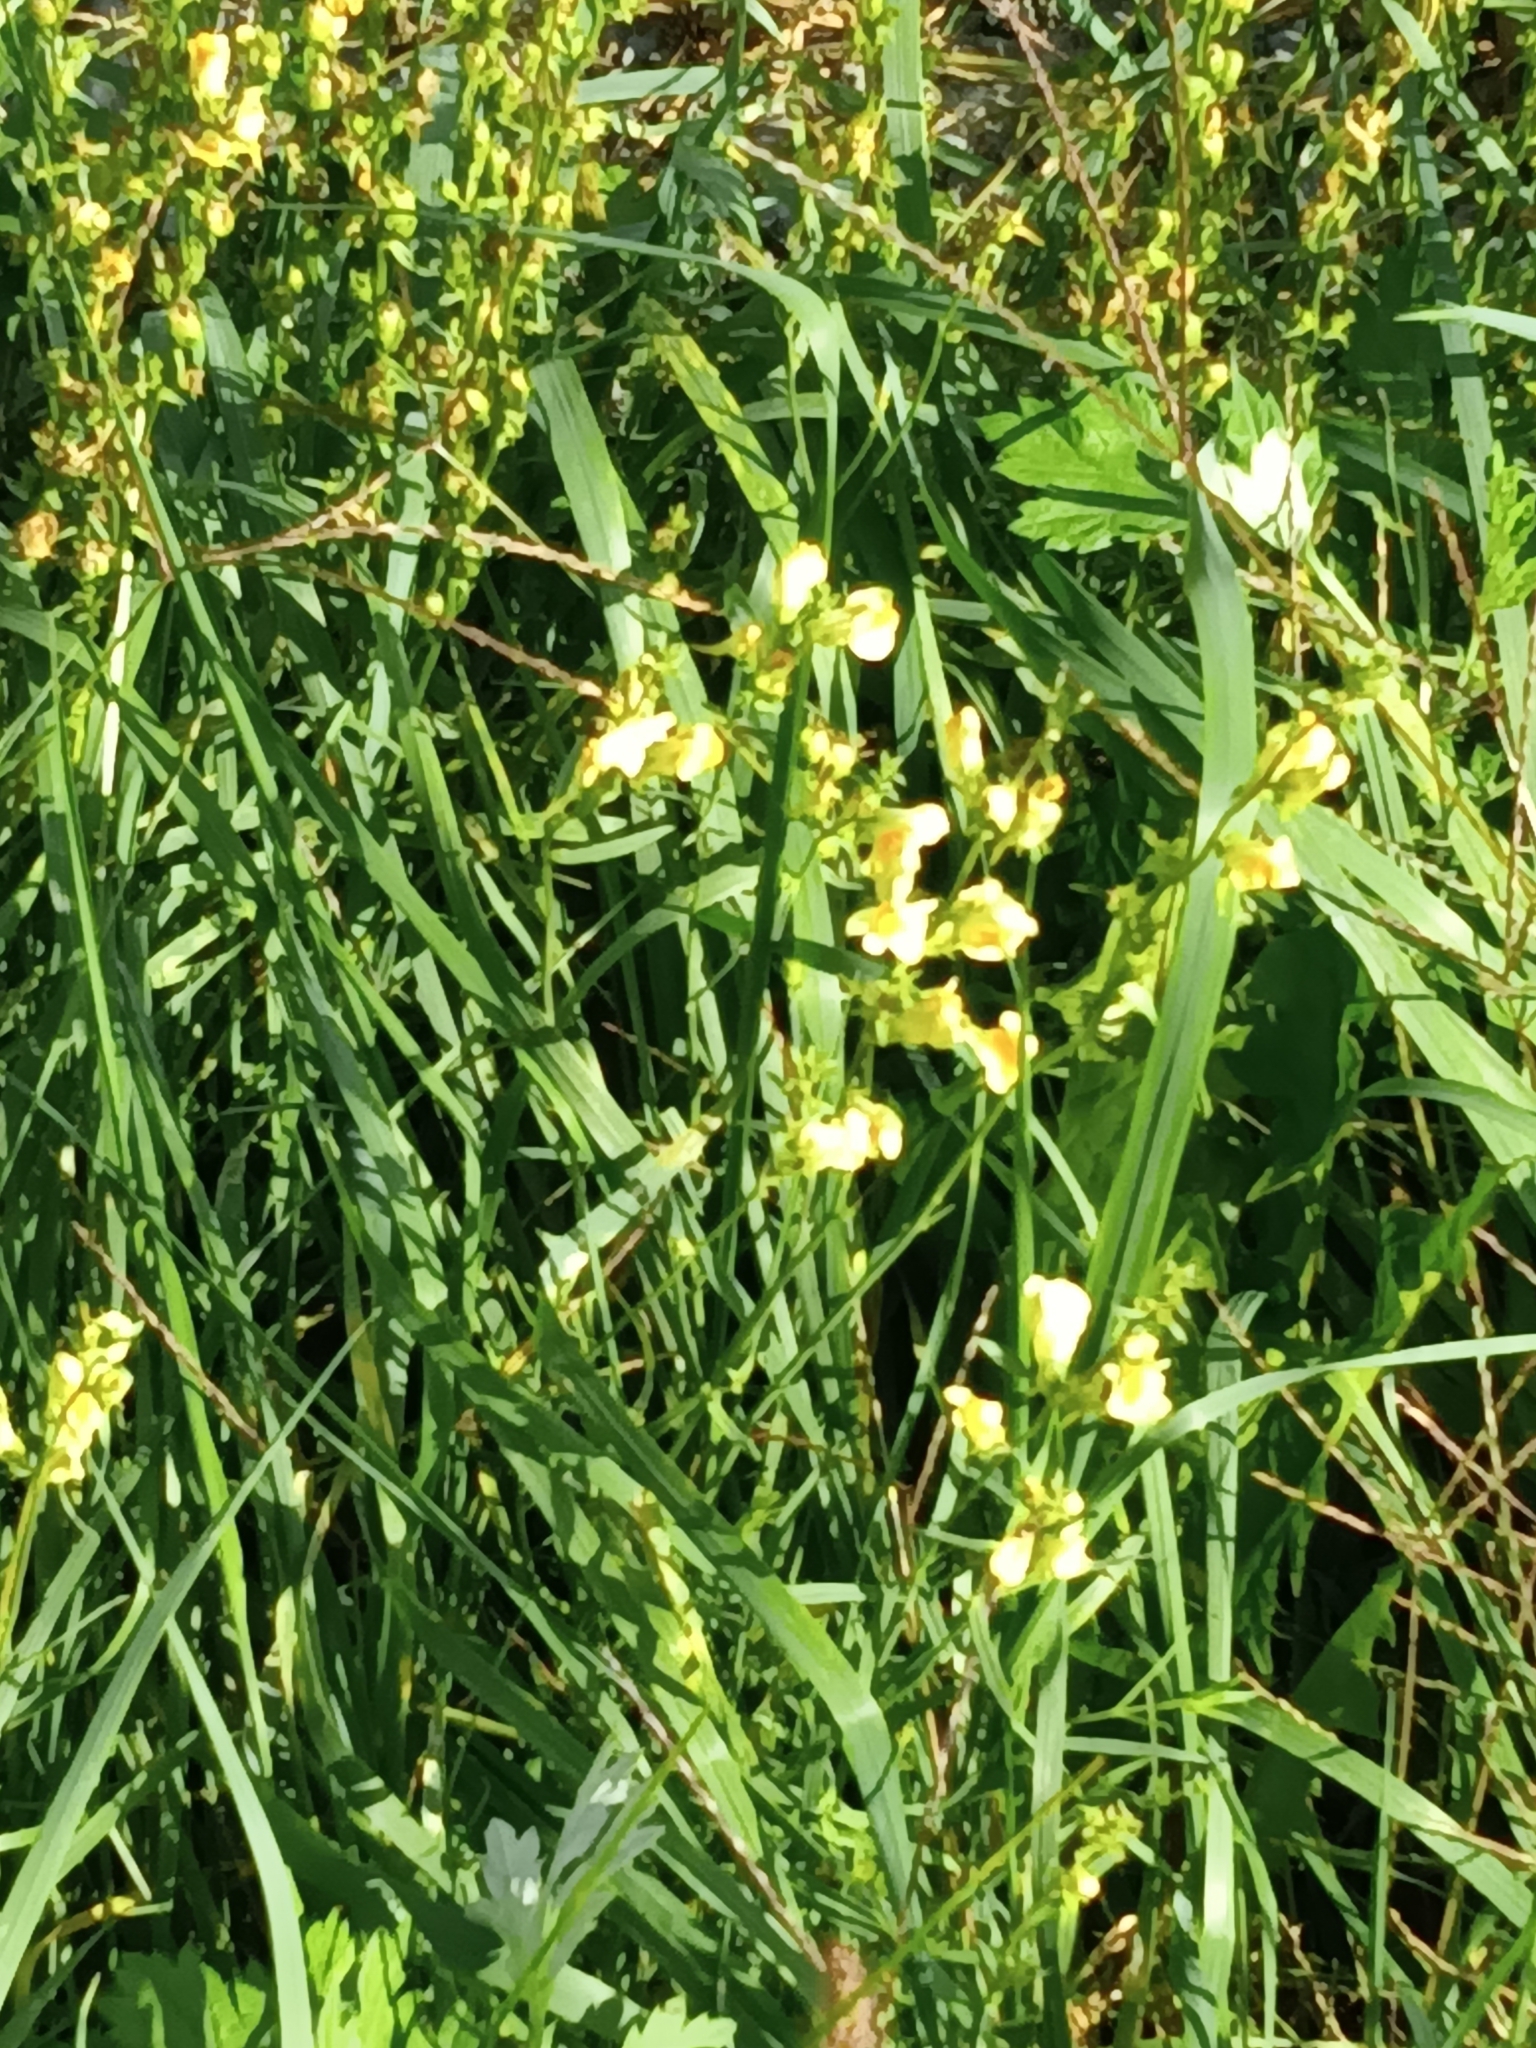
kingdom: Plantae
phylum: Tracheophyta
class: Magnoliopsida
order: Lamiales
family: Plantaginaceae
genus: Linaria
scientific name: Linaria vulgaris
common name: Butter and eggs
